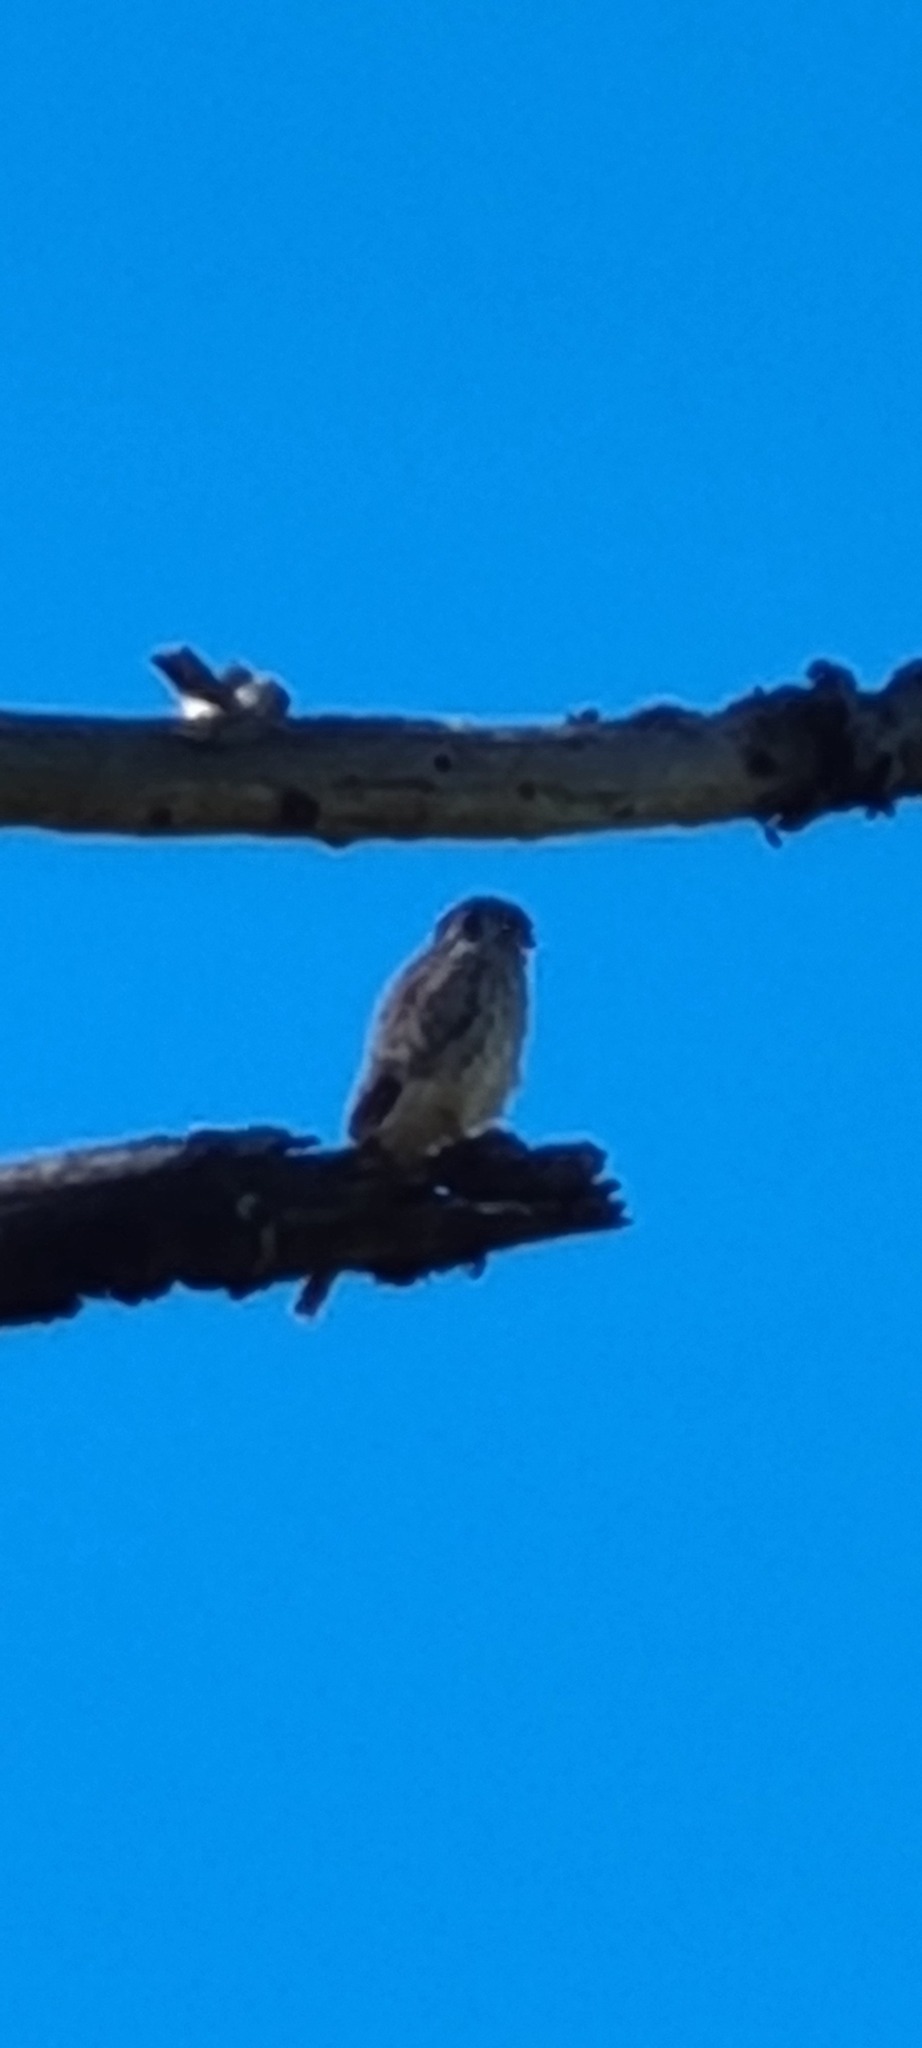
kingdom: Animalia
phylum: Chordata
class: Aves
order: Falconiformes
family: Falconidae
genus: Falco
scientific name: Falco sparverius
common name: American kestrel
